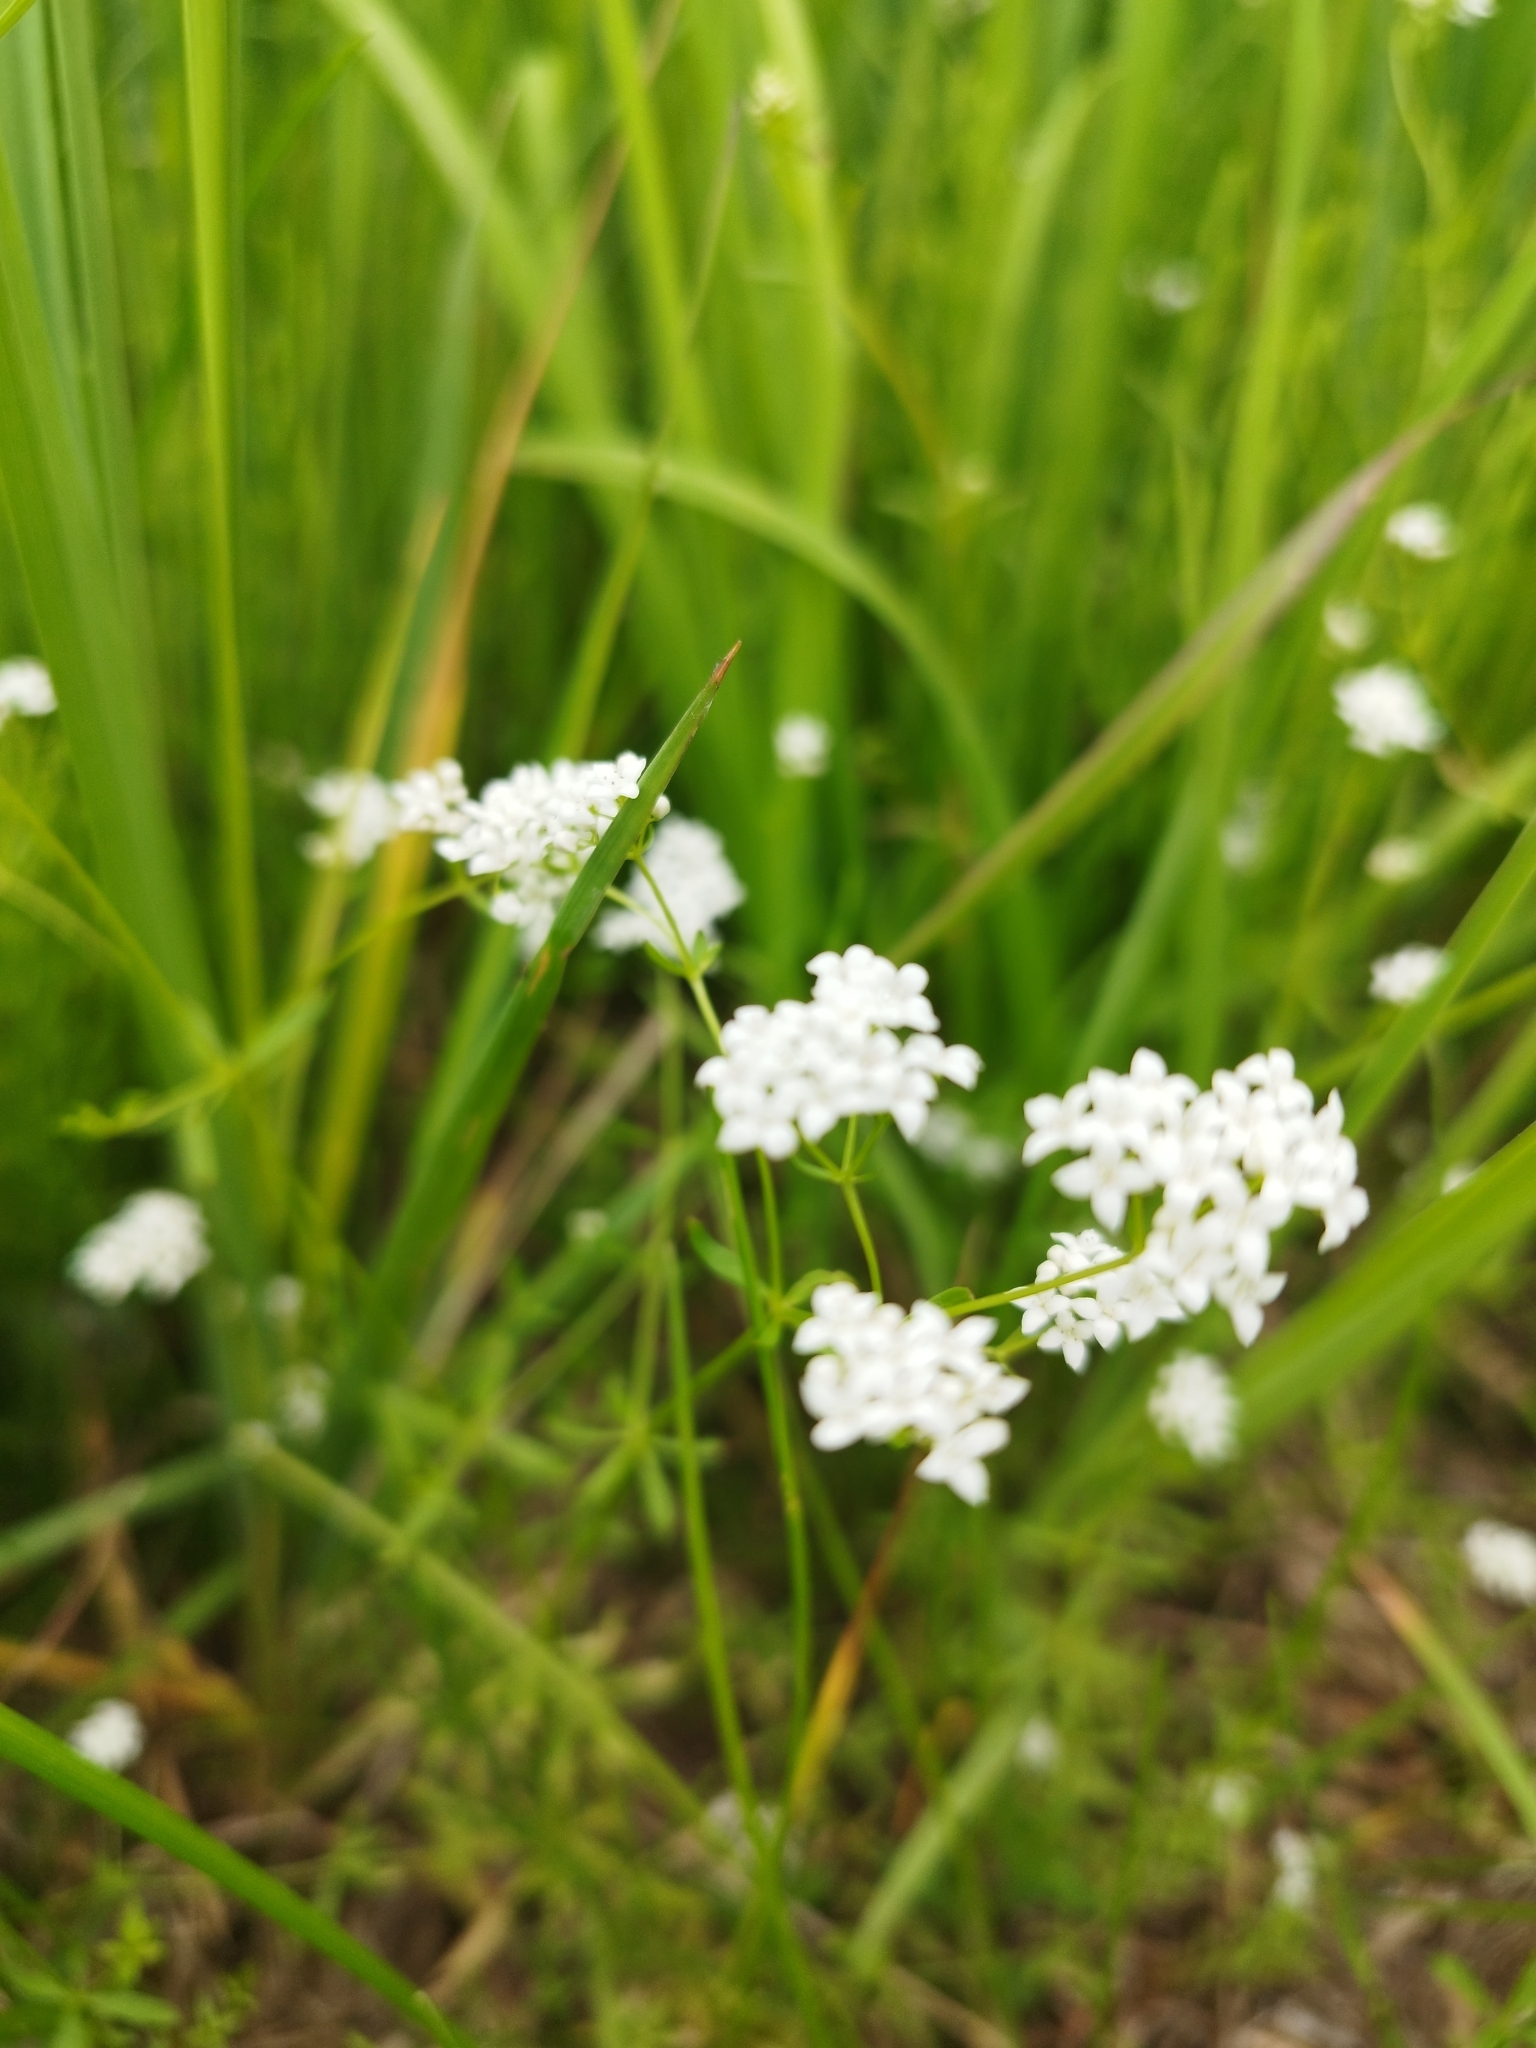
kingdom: Plantae
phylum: Tracheophyta
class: Magnoliopsida
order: Gentianales
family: Rubiaceae
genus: Galium
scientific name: Galium palustre
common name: Common marsh-bedstraw
